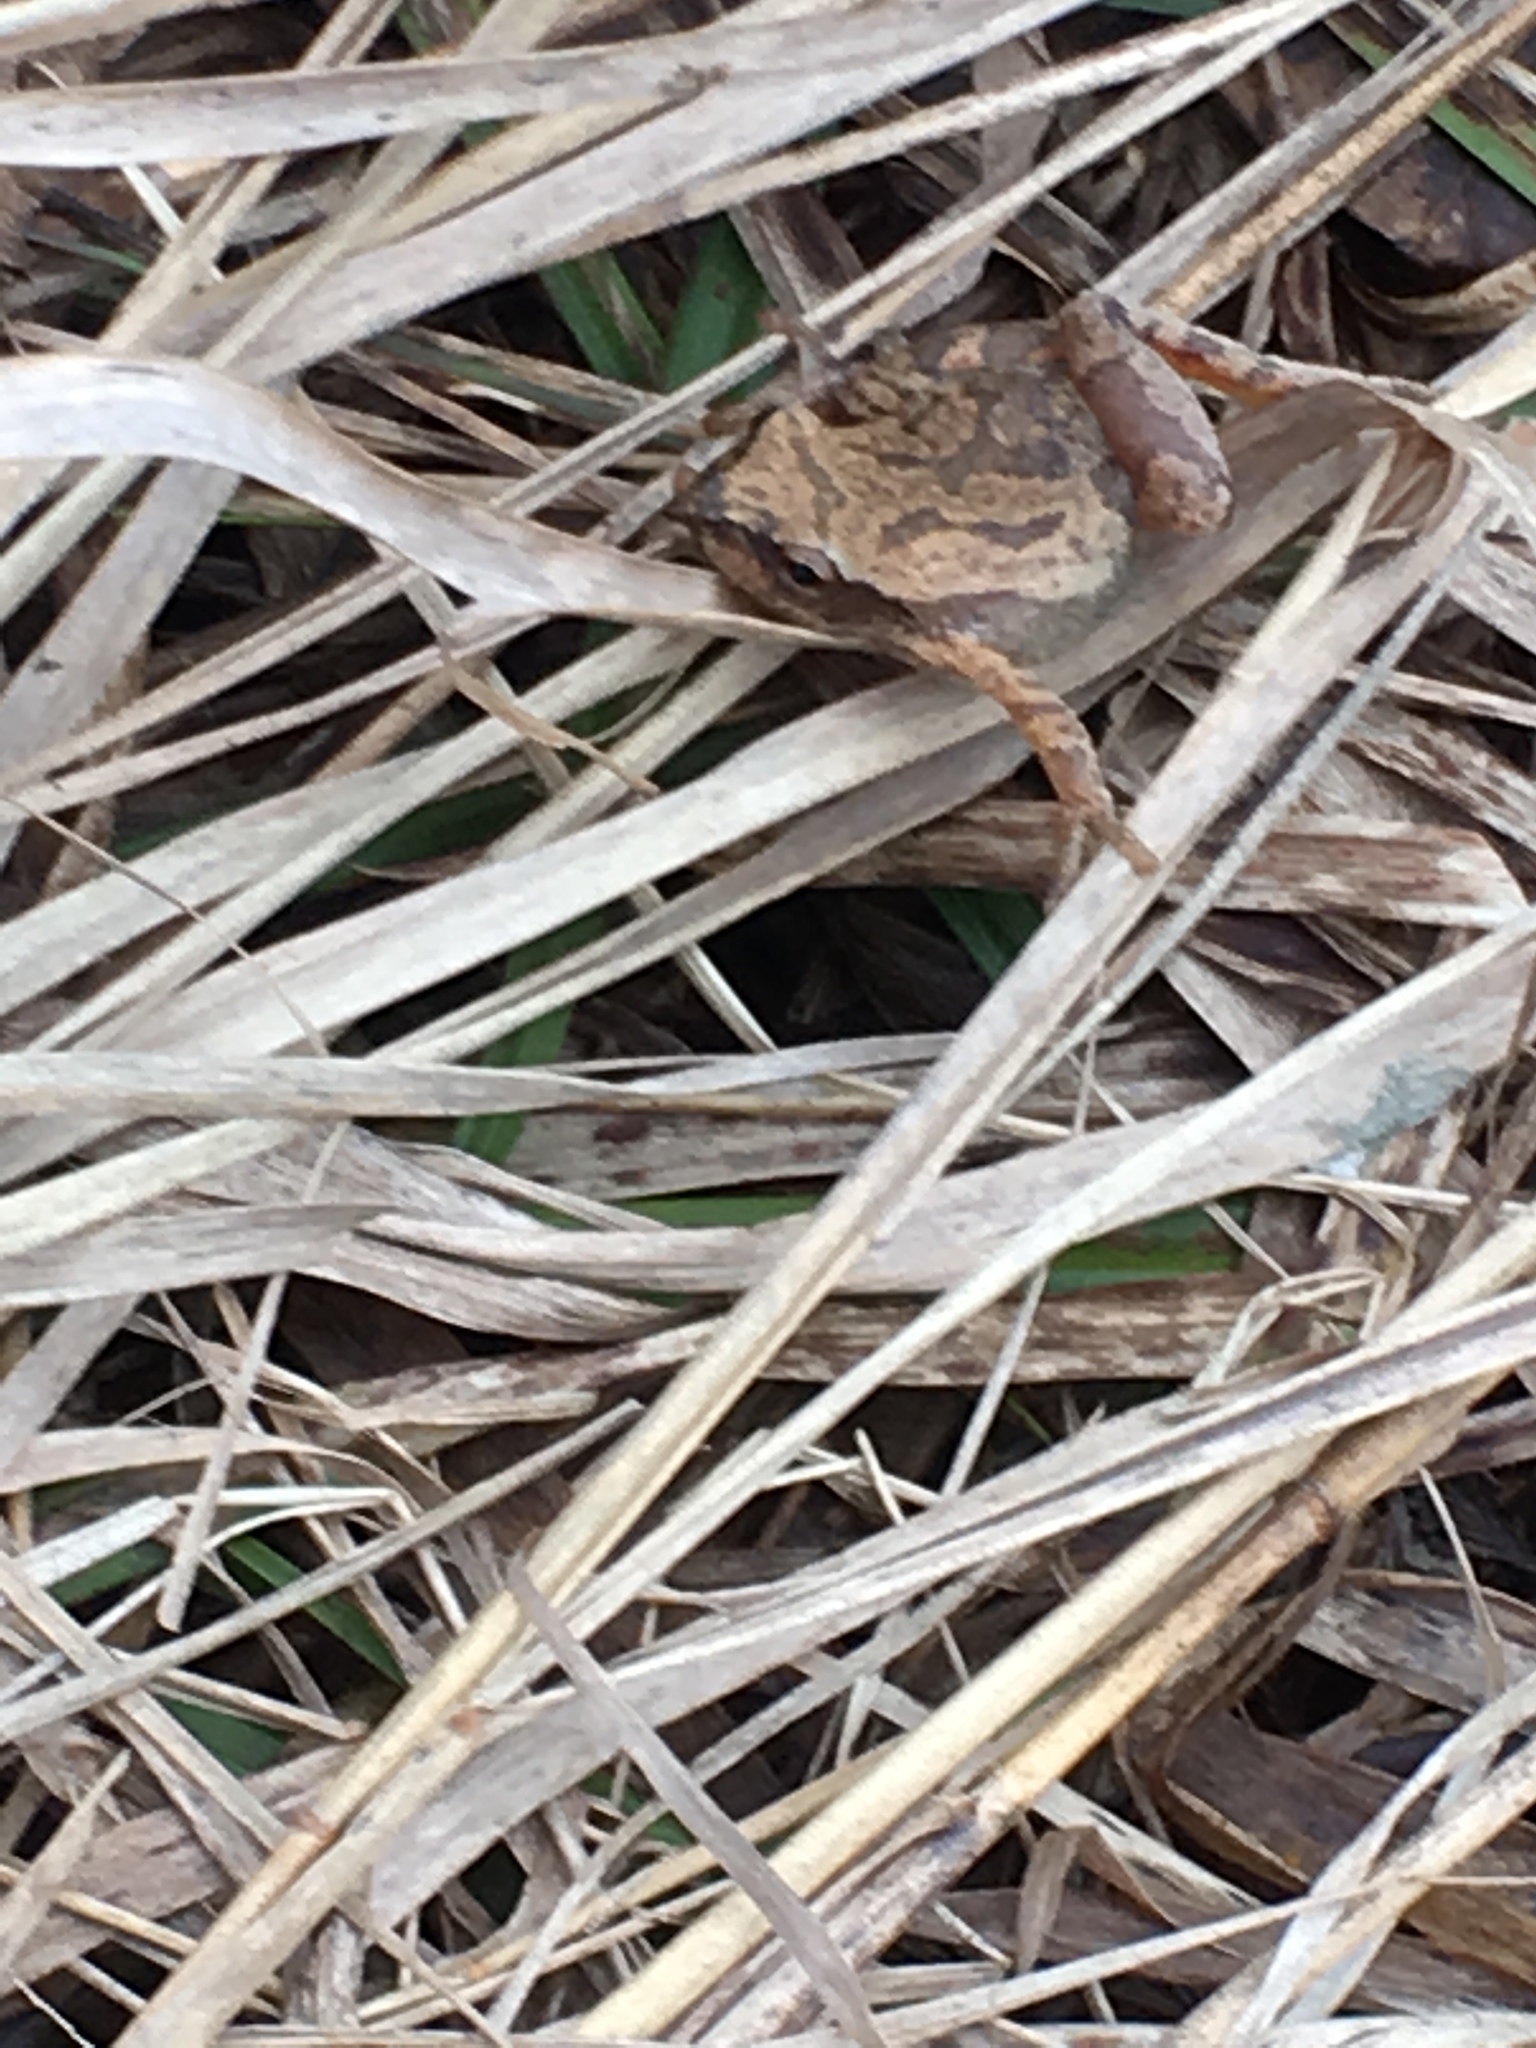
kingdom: Animalia
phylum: Chordata
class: Amphibia
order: Anura
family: Hylidae
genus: Pseudacris
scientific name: Pseudacris crucifer
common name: Spring peeper
